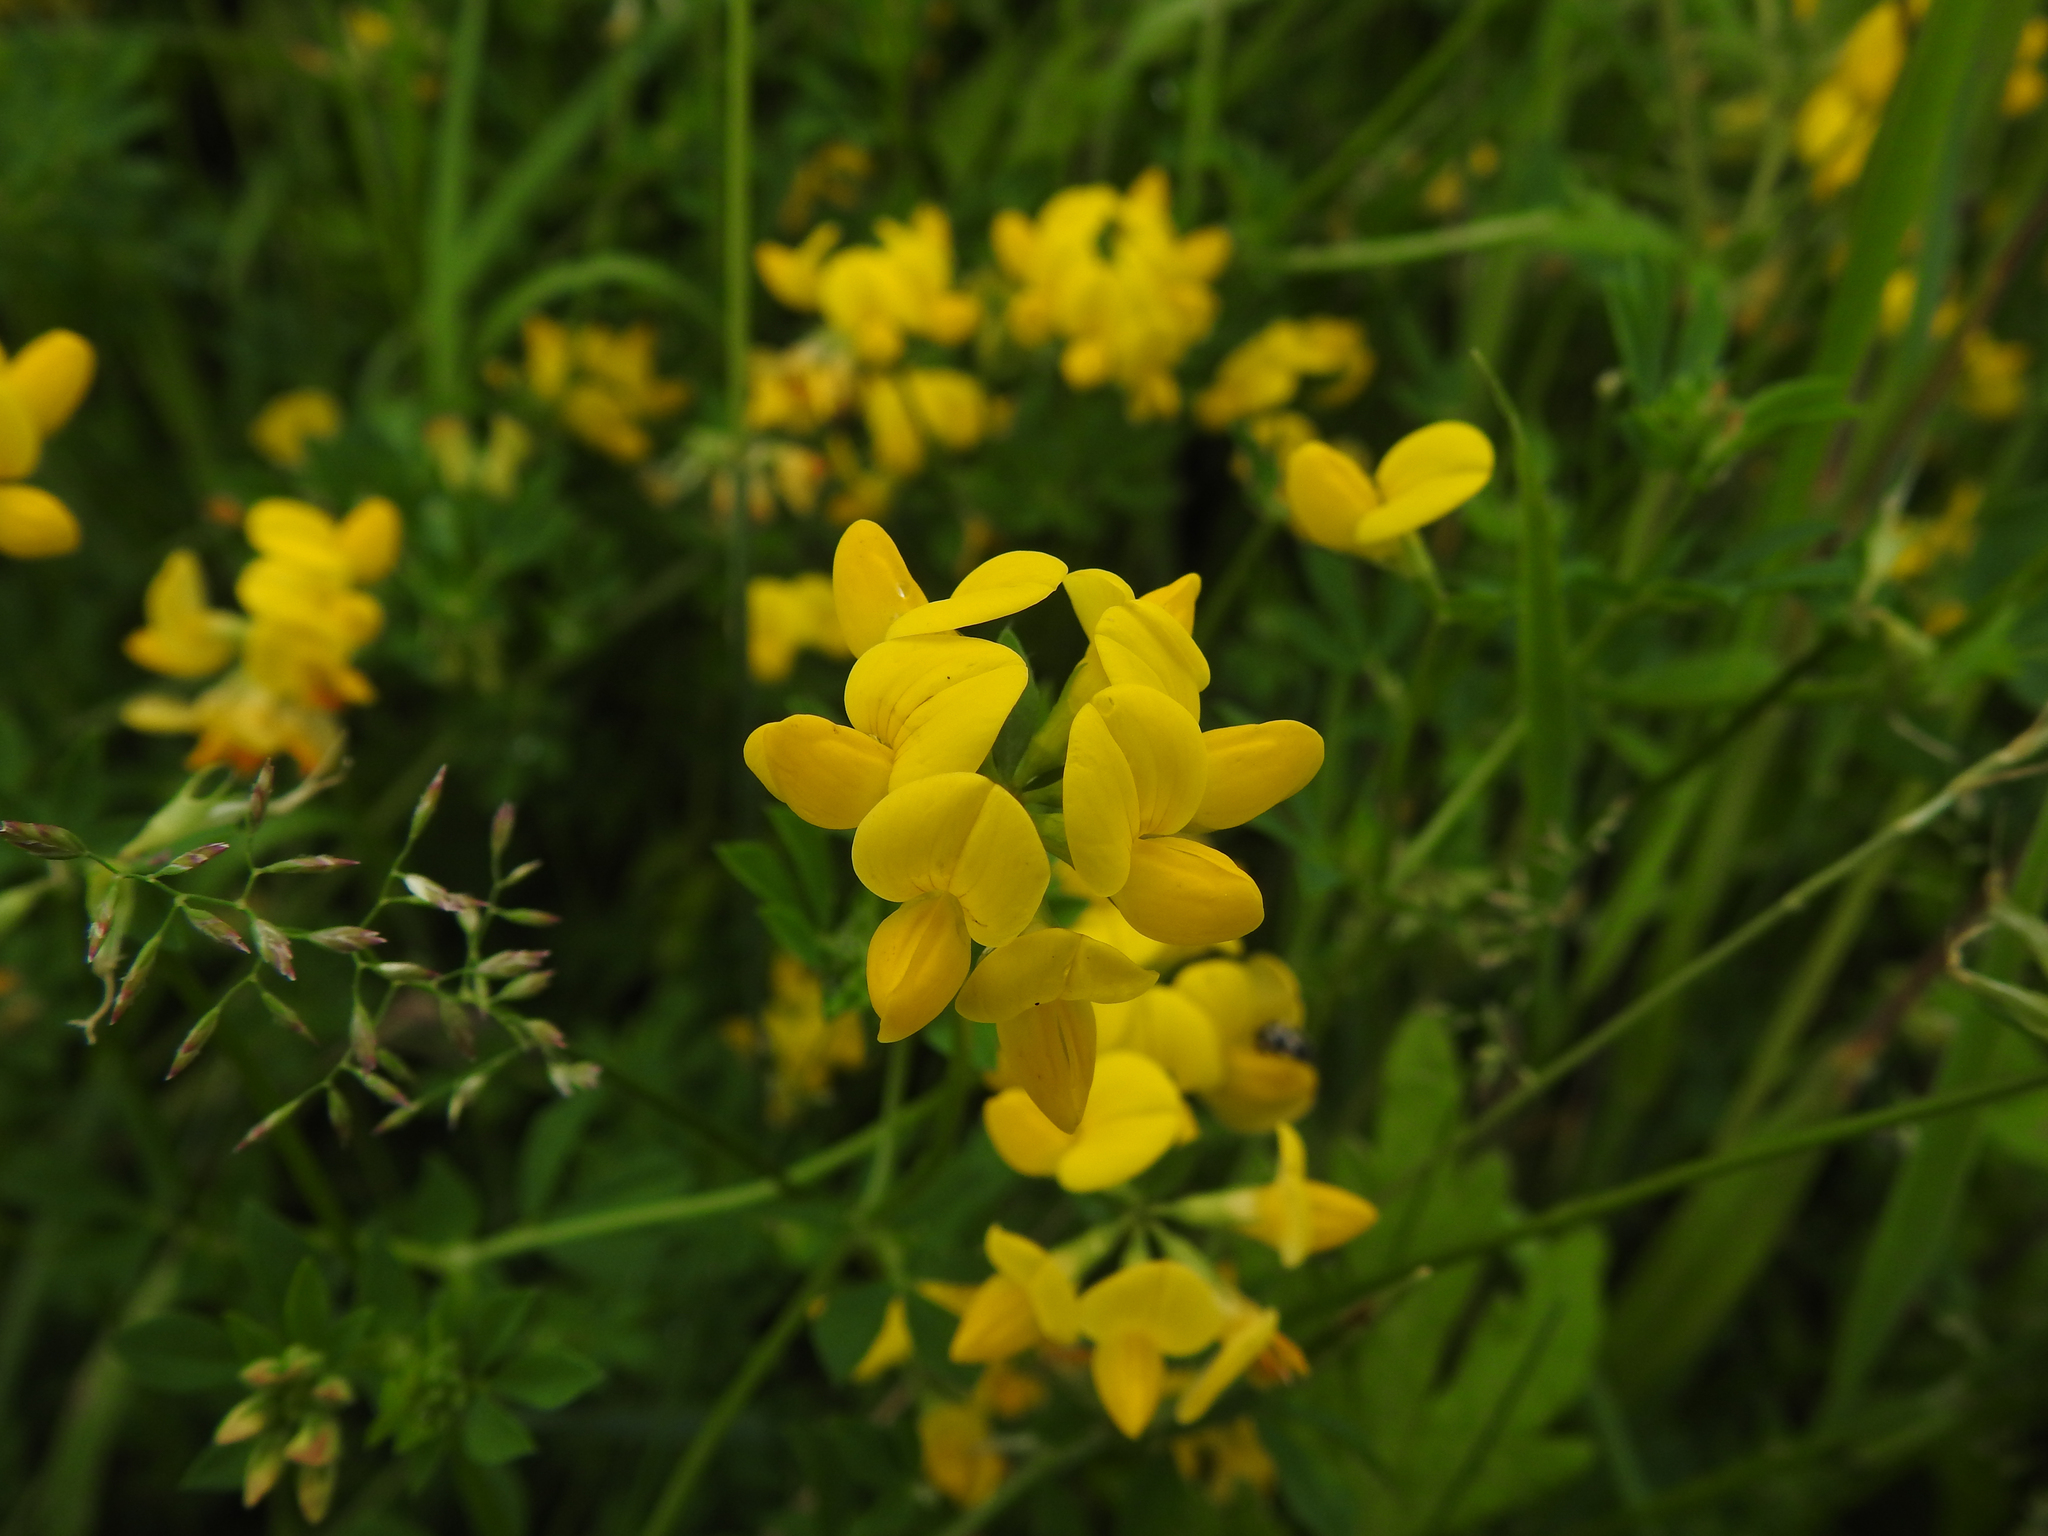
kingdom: Plantae
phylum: Tracheophyta
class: Magnoliopsida
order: Fabales
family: Fabaceae
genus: Lotus
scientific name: Lotus corniculatus
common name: Common bird's-foot-trefoil
